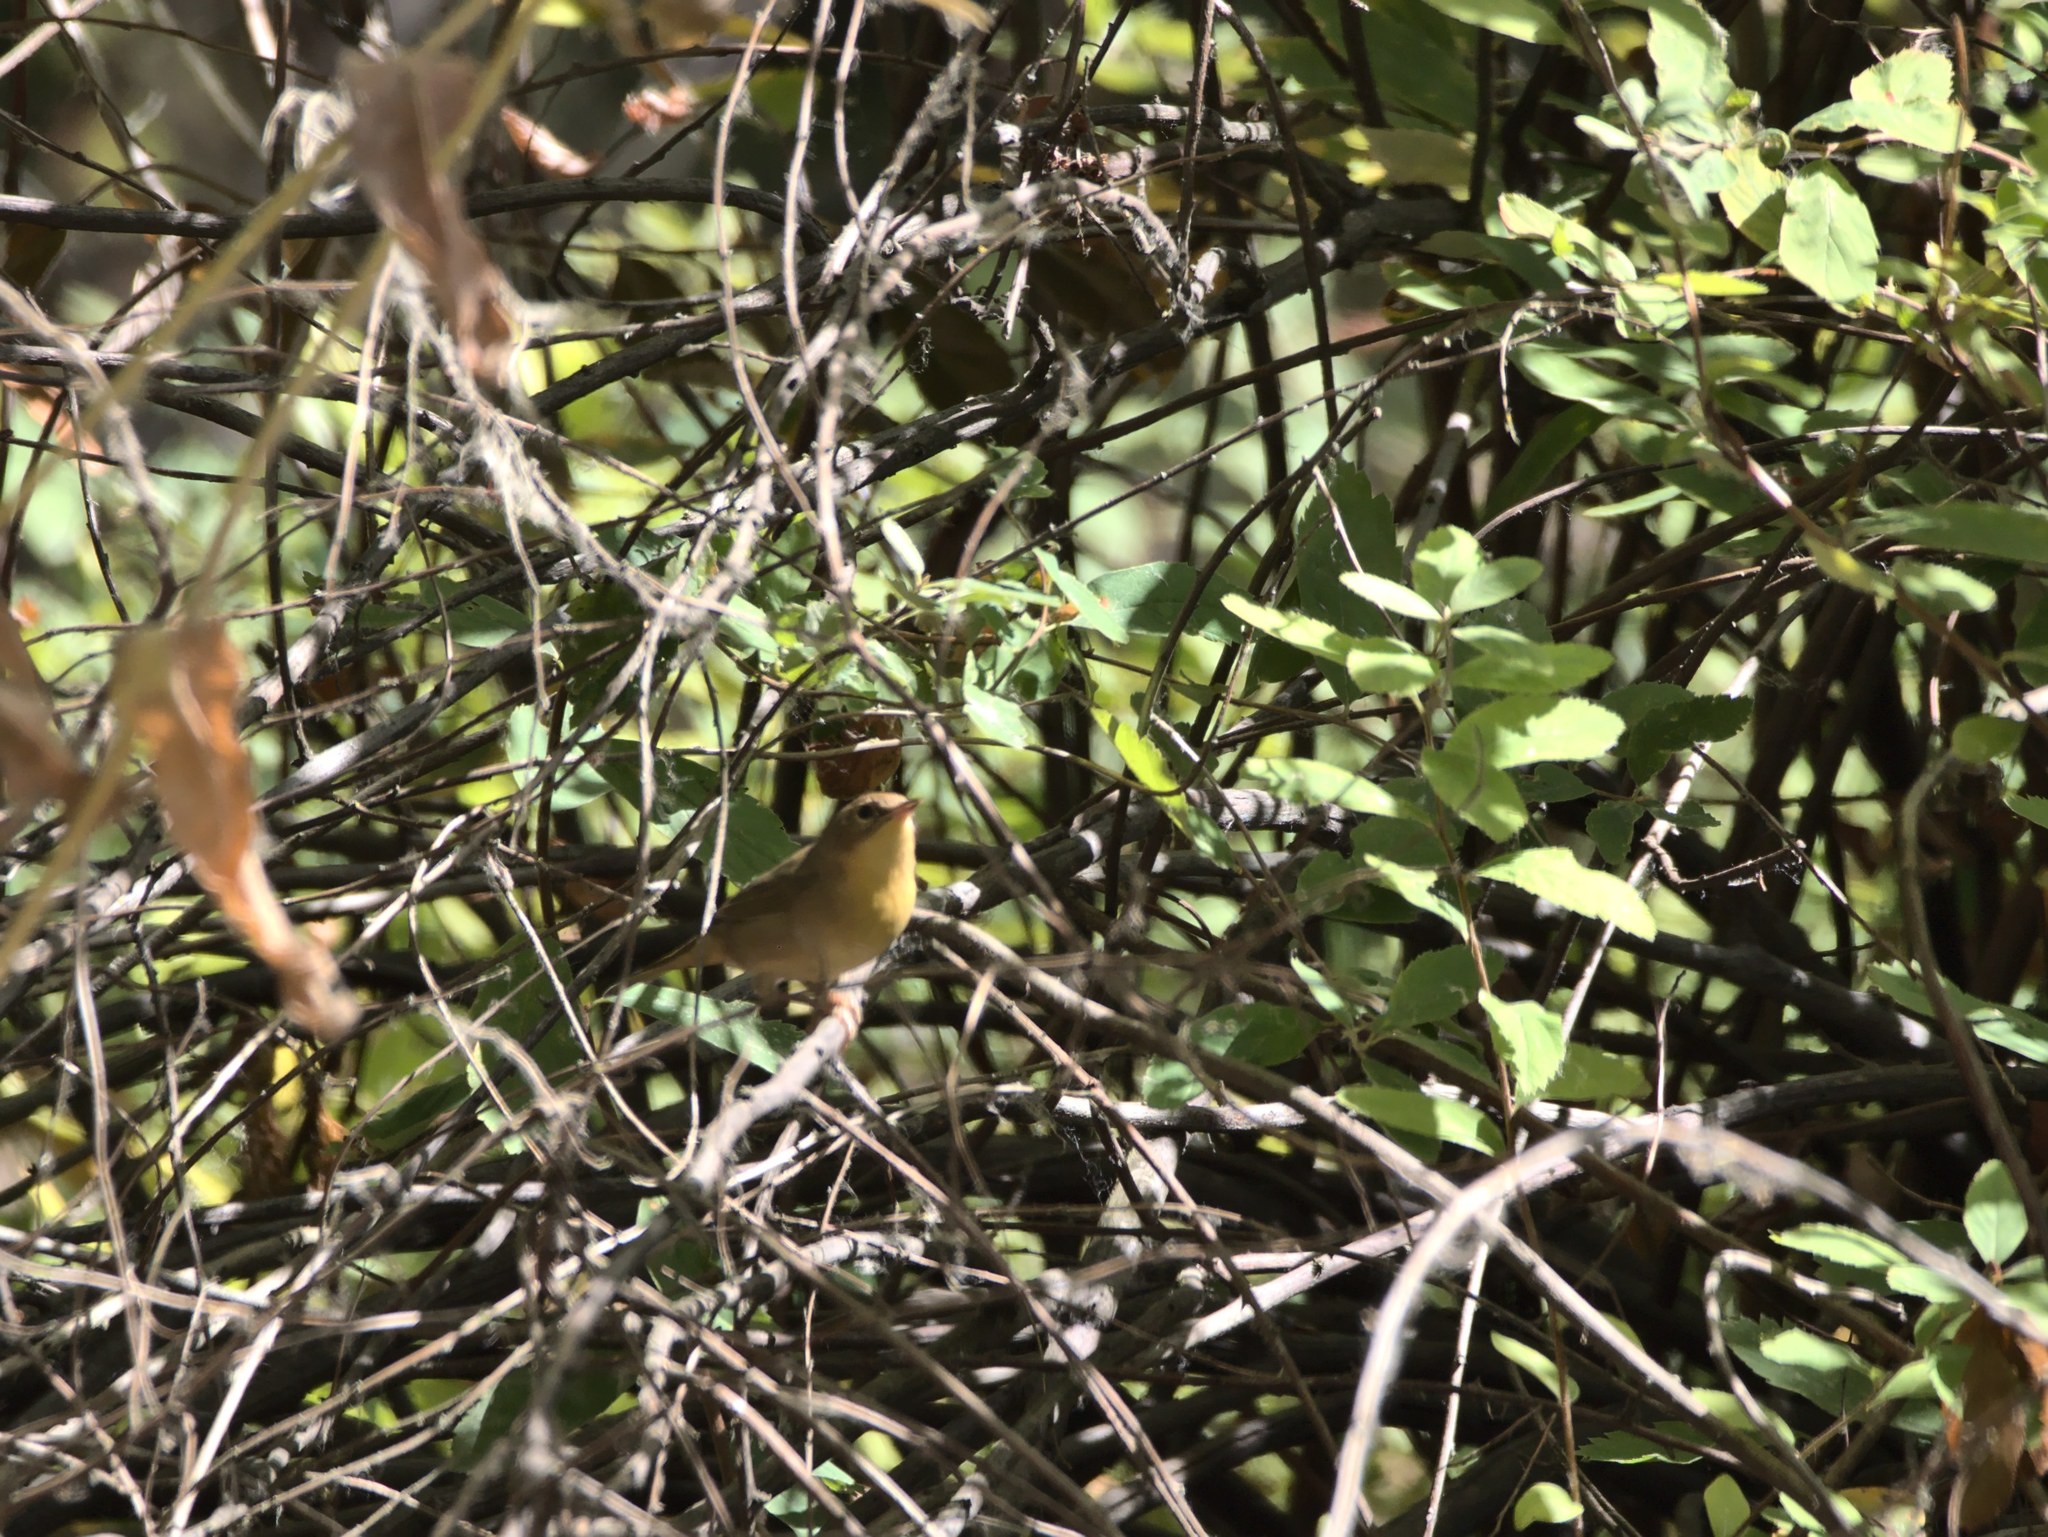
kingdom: Animalia
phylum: Chordata
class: Aves
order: Passeriformes
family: Parulidae
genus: Geothlypis
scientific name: Geothlypis trichas
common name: Common yellowthroat
